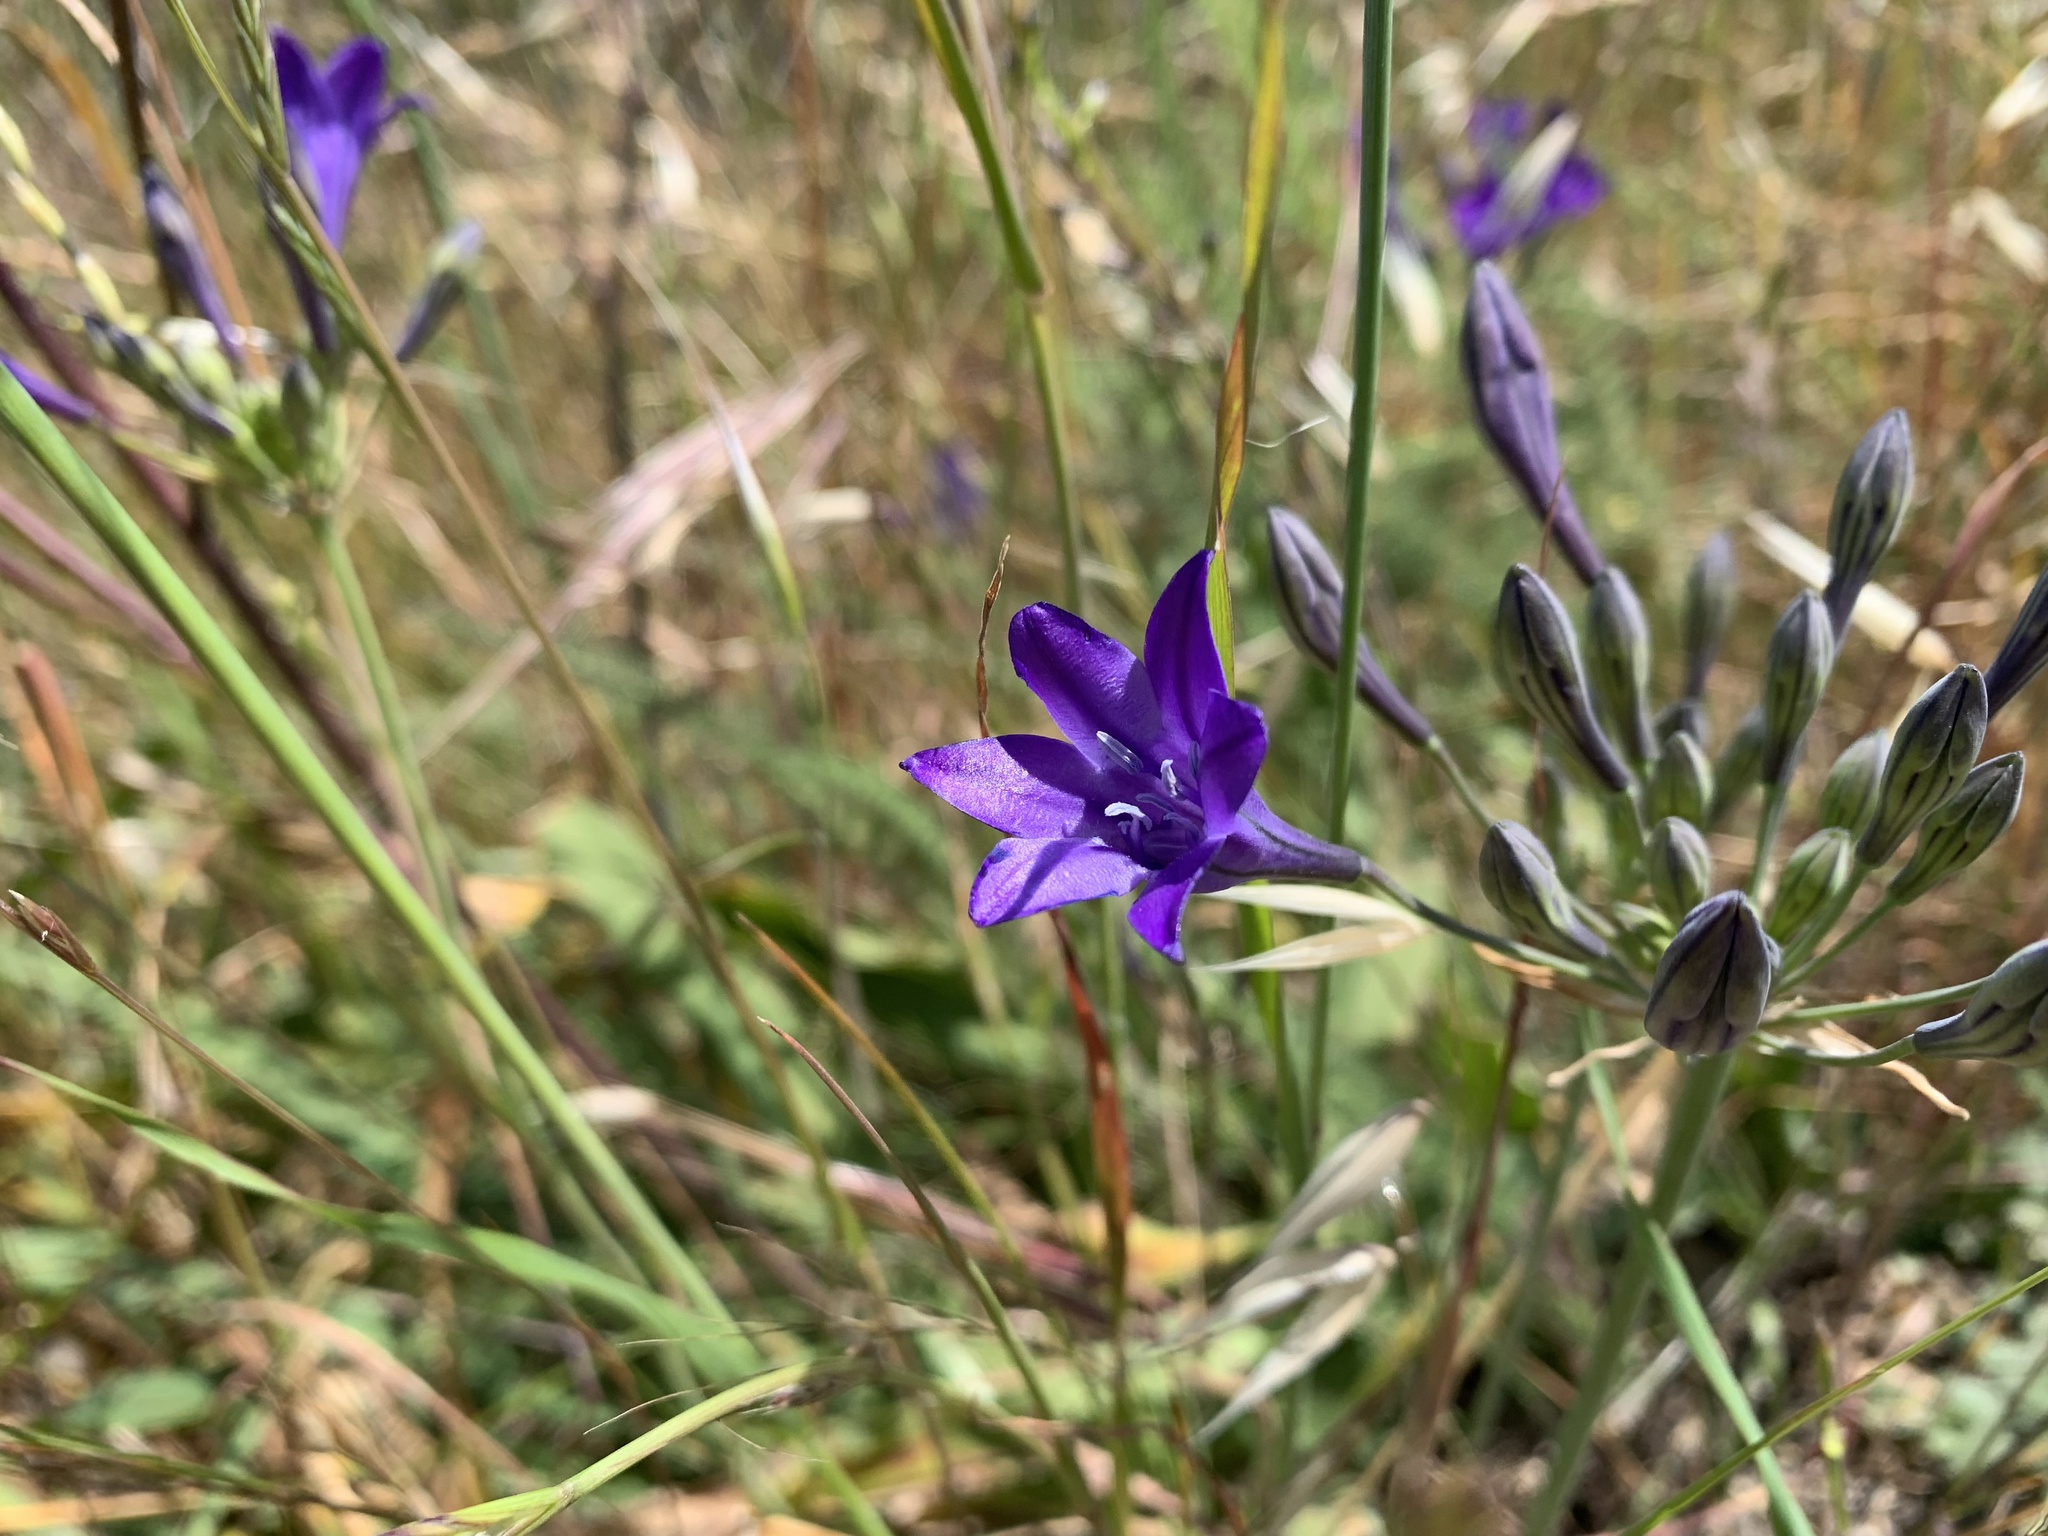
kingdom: Plantae
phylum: Tracheophyta
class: Liliopsida
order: Asparagales
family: Asparagaceae
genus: Triteleia
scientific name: Triteleia laxa
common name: Triplet-lily
